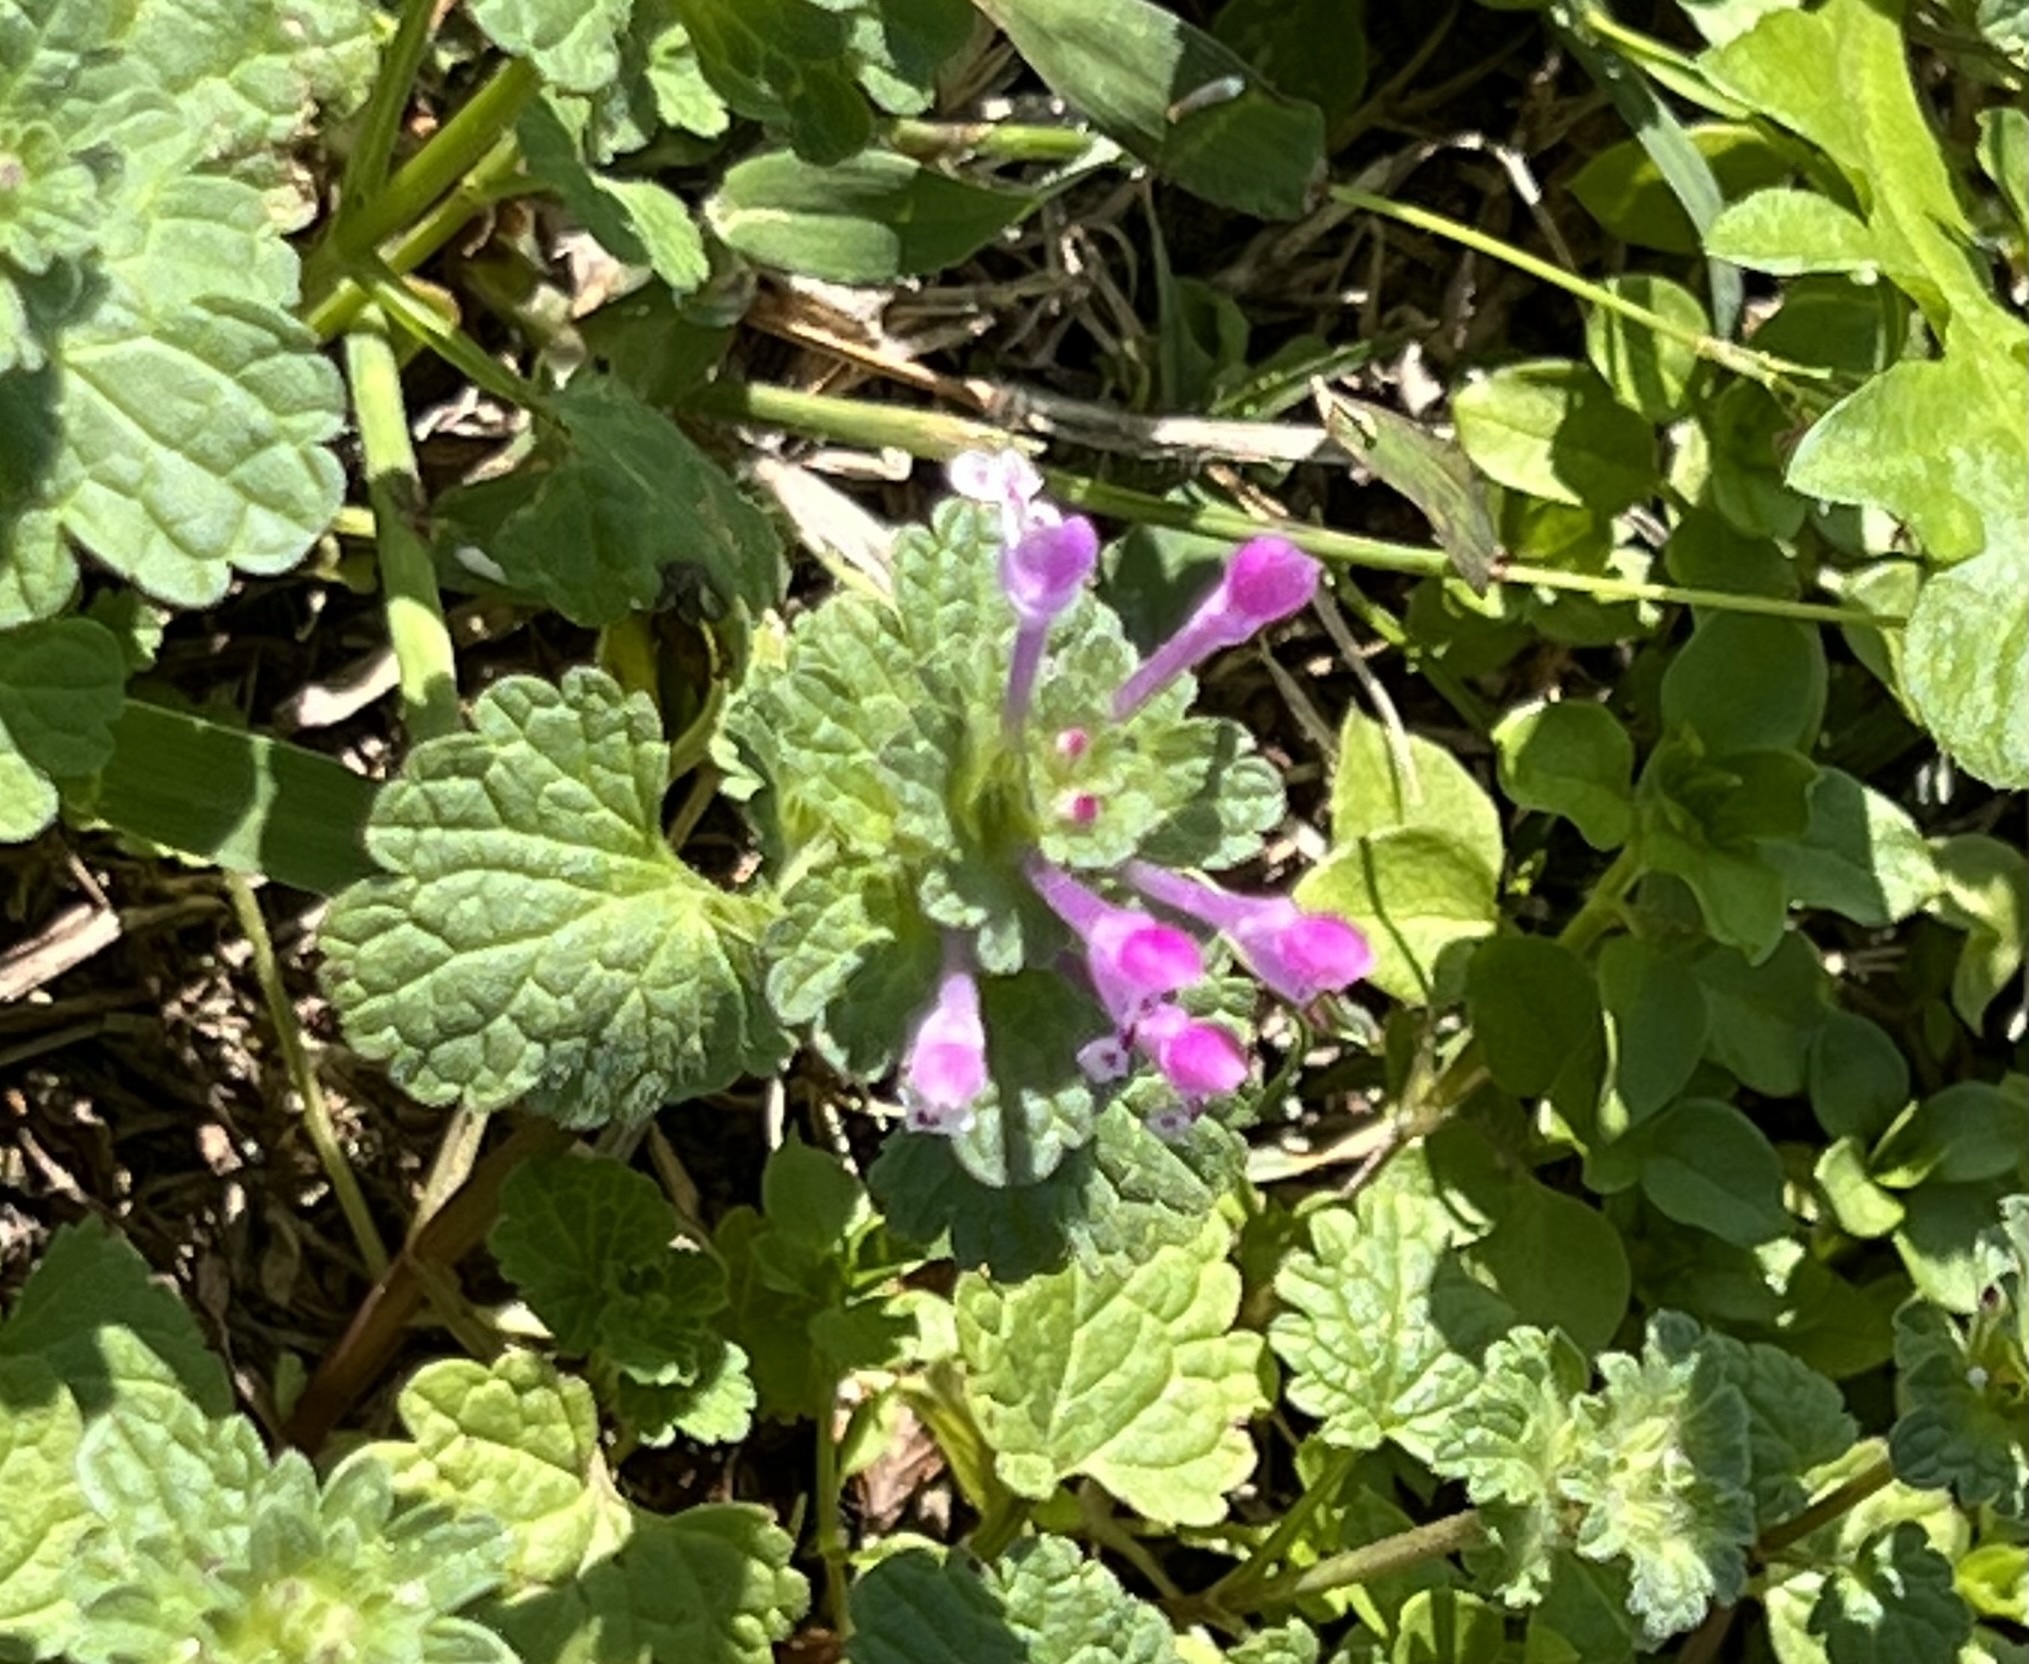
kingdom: Plantae
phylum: Tracheophyta
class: Magnoliopsida
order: Lamiales
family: Lamiaceae
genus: Lamium
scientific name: Lamium amplexicaule
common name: Henbit dead-nettle
